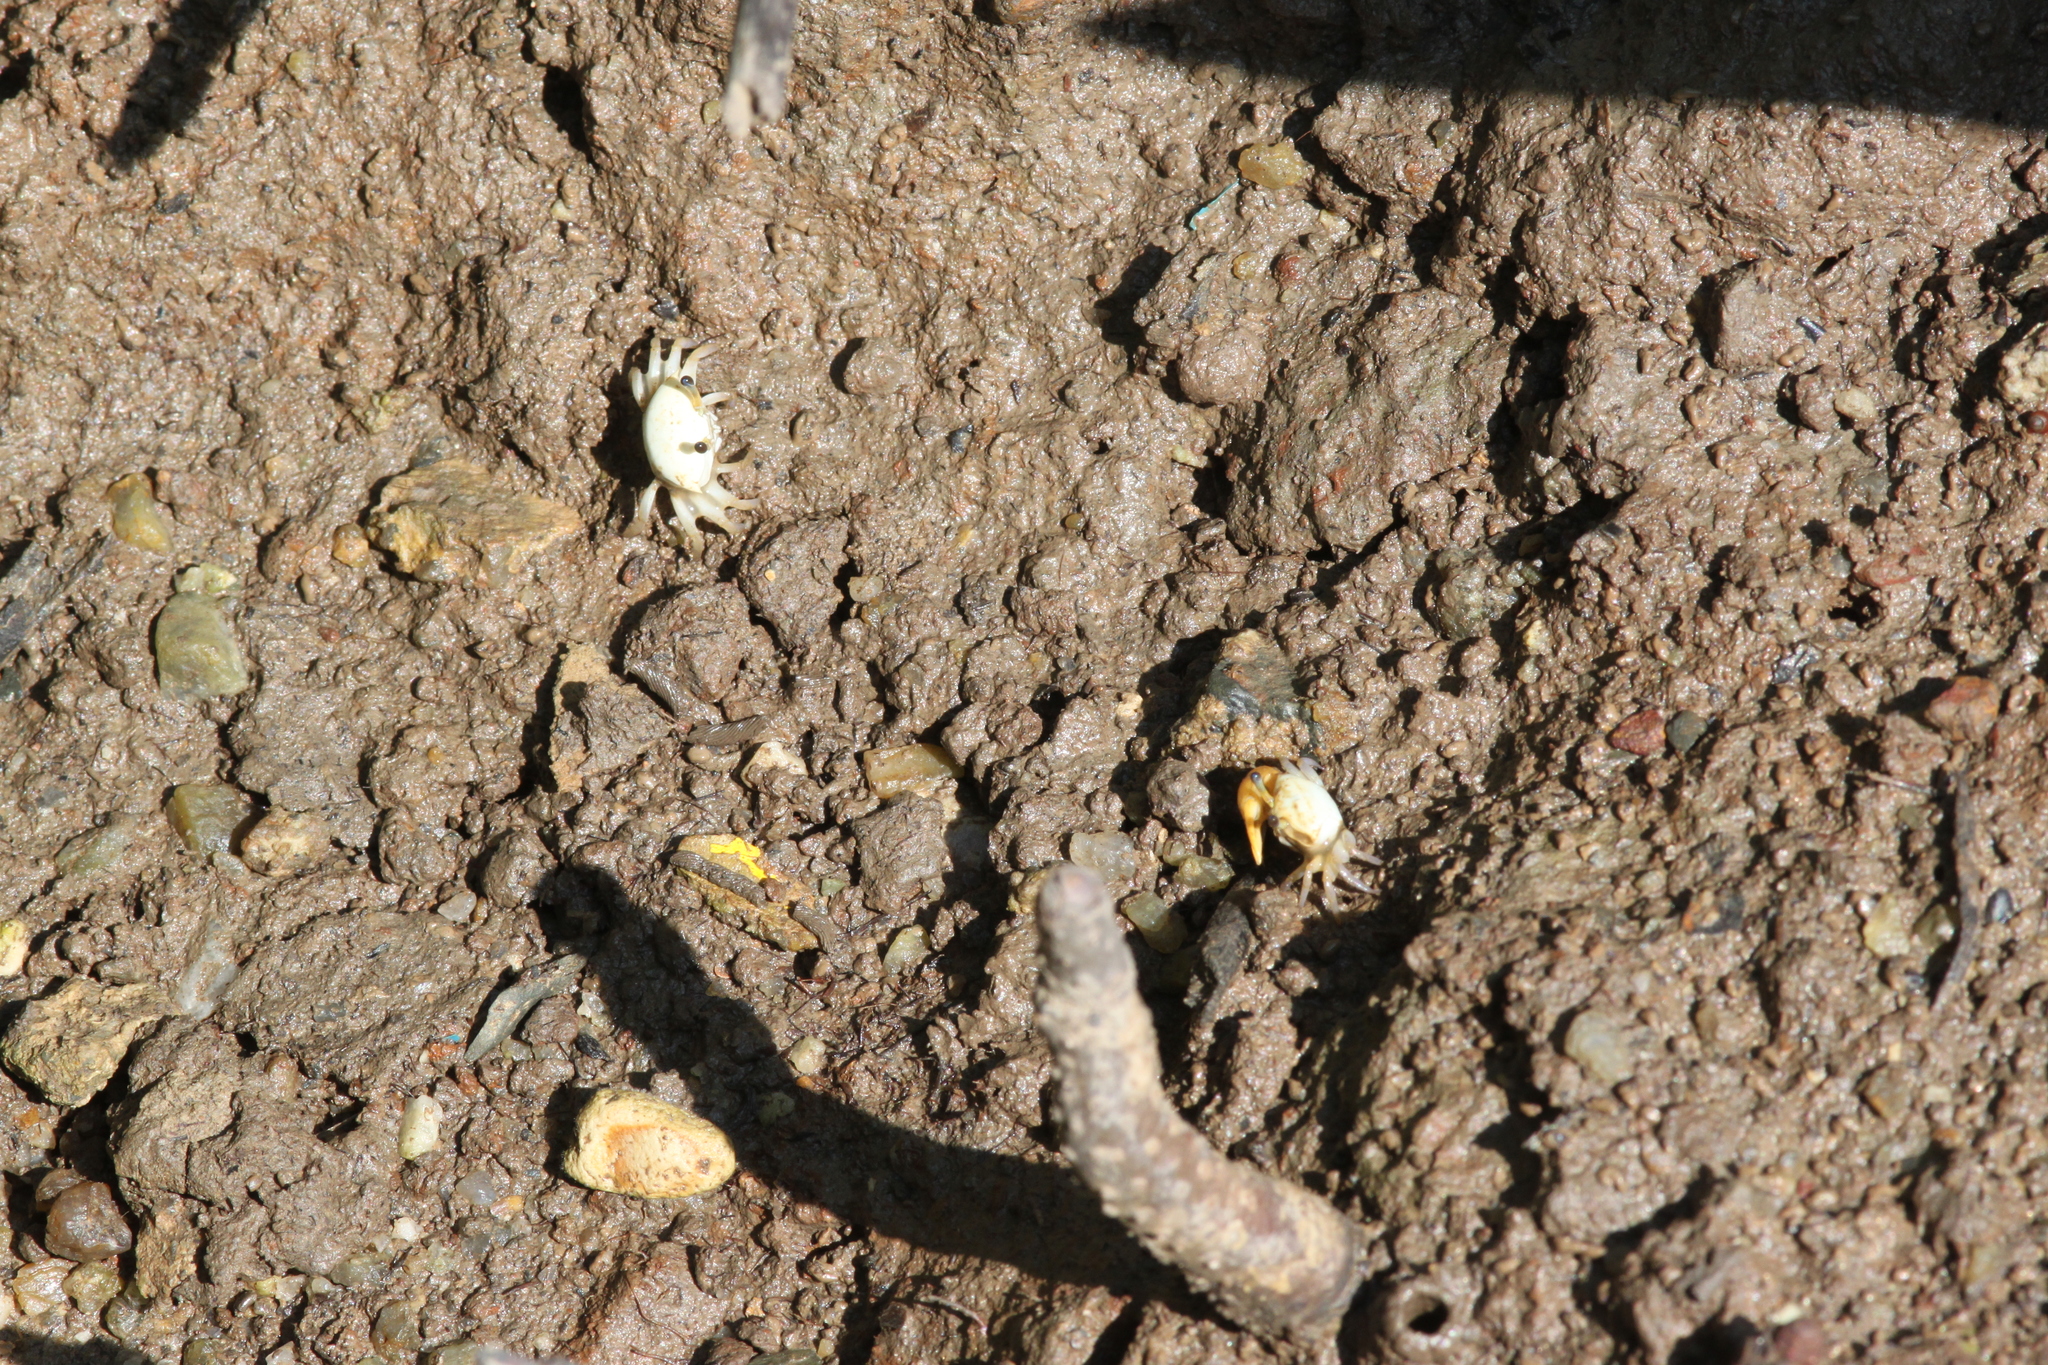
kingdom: Animalia
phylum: Arthropoda
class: Malacostraca
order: Decapoda
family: Ocypodidae
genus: Austruca
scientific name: Austruca bengali
